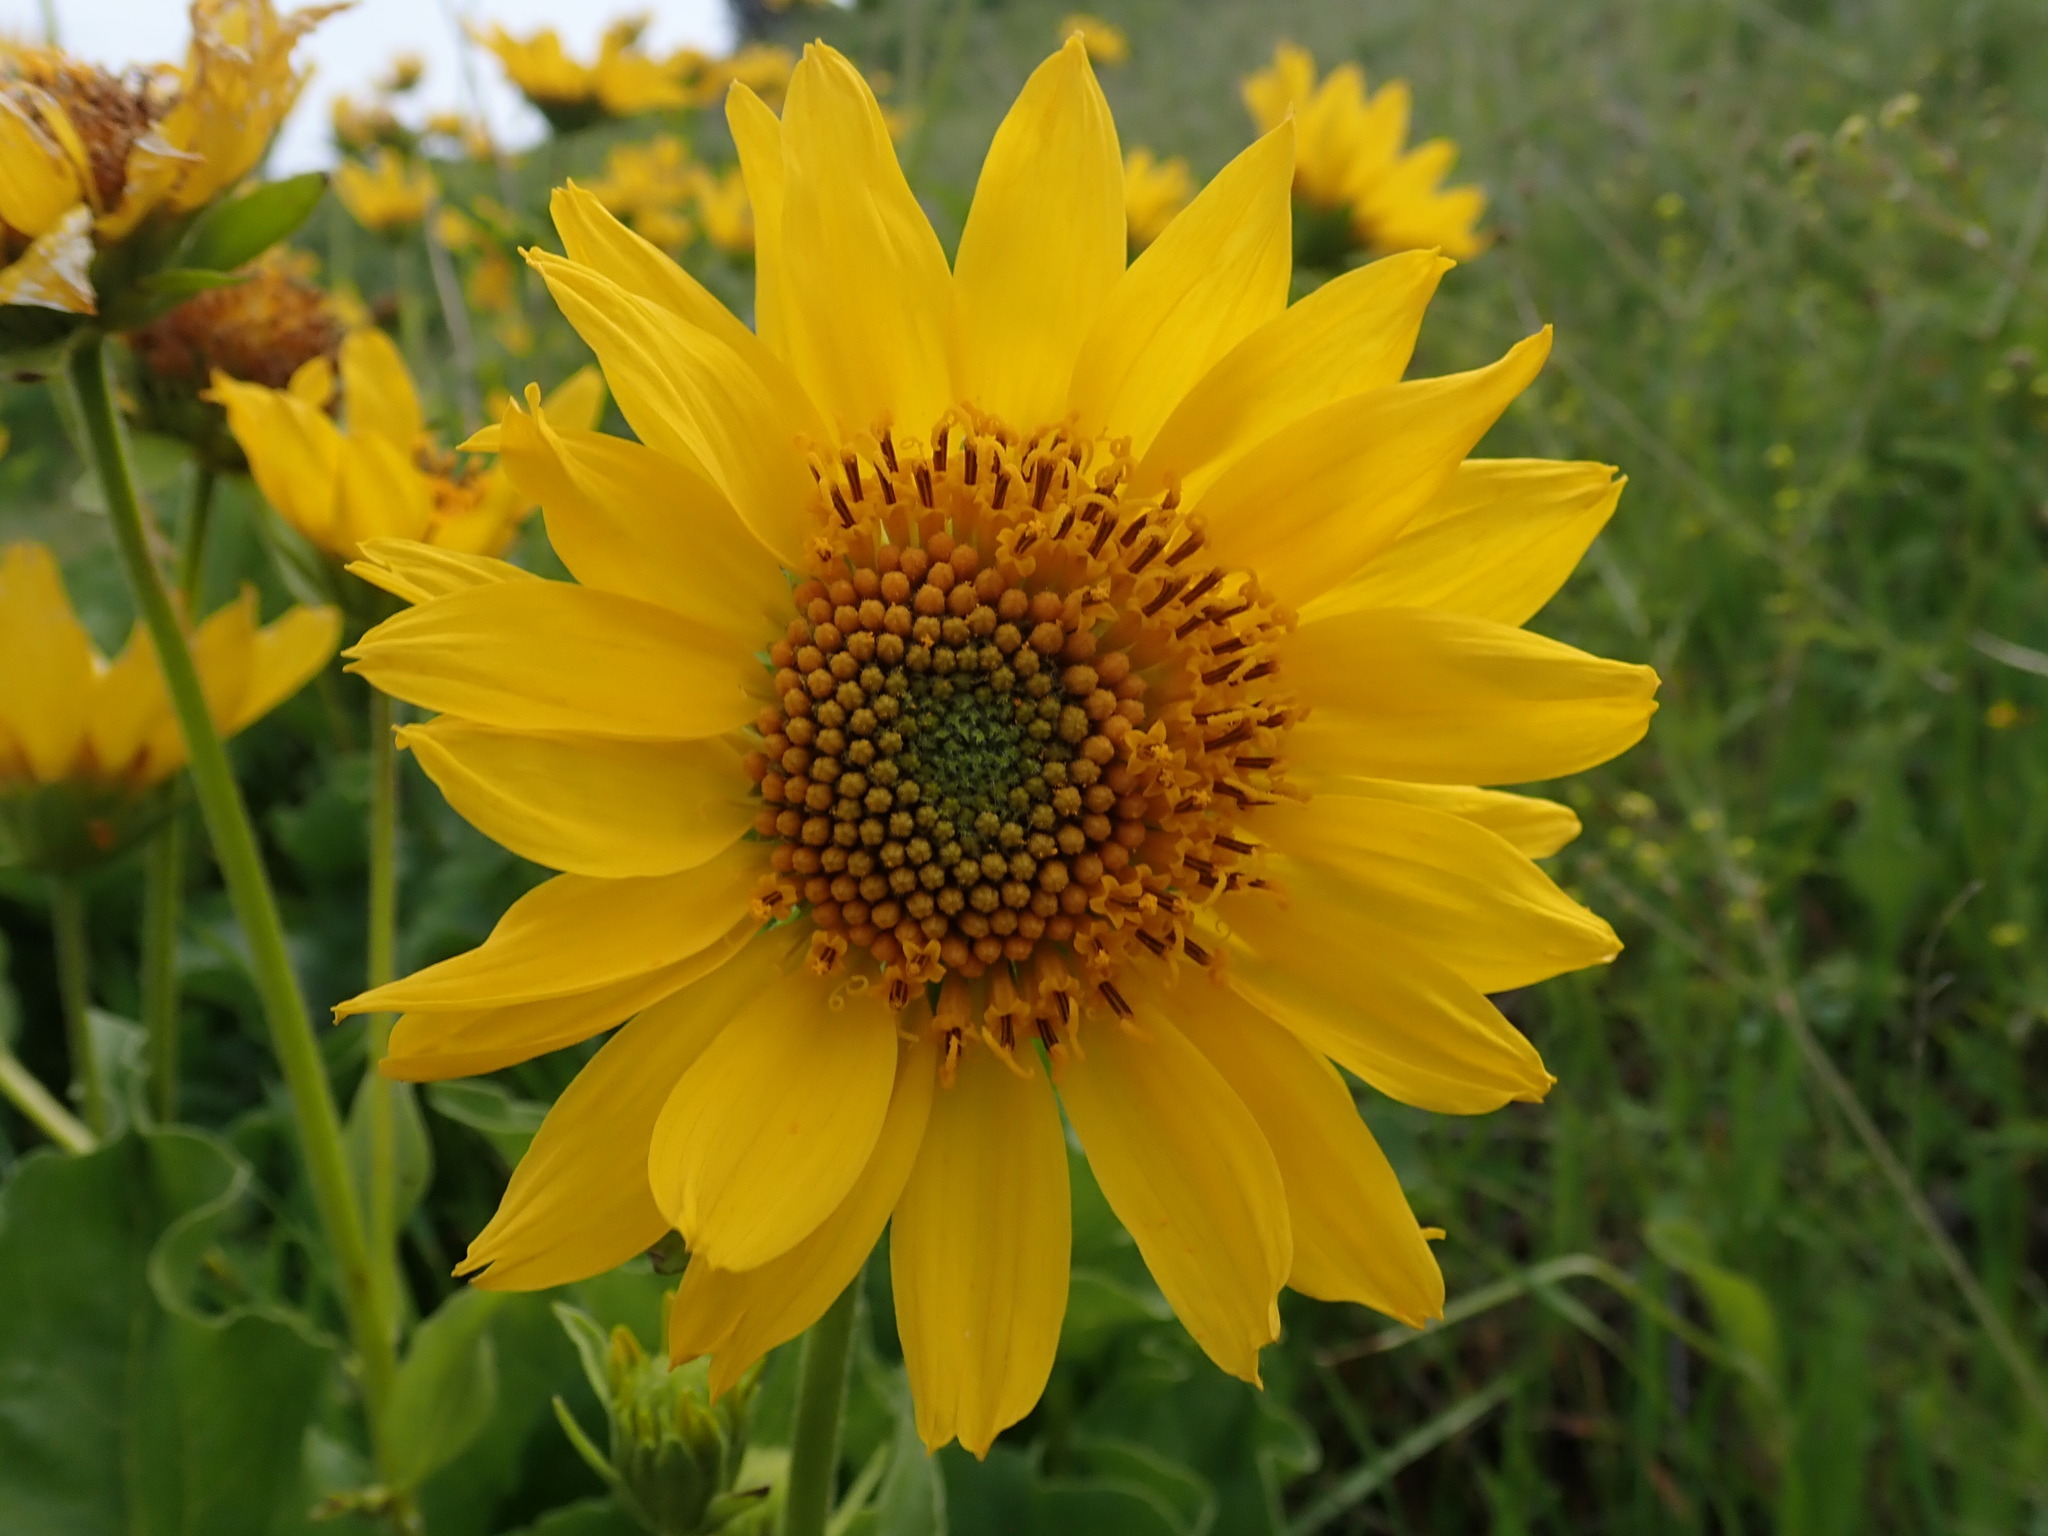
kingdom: Plantae
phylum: Tracheophyta
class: Magnoliopsida
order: Asterales
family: Asteraceae
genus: Balsamorhiza
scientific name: Balsamorhiza deltoidea
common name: Deltoid balsamroot
